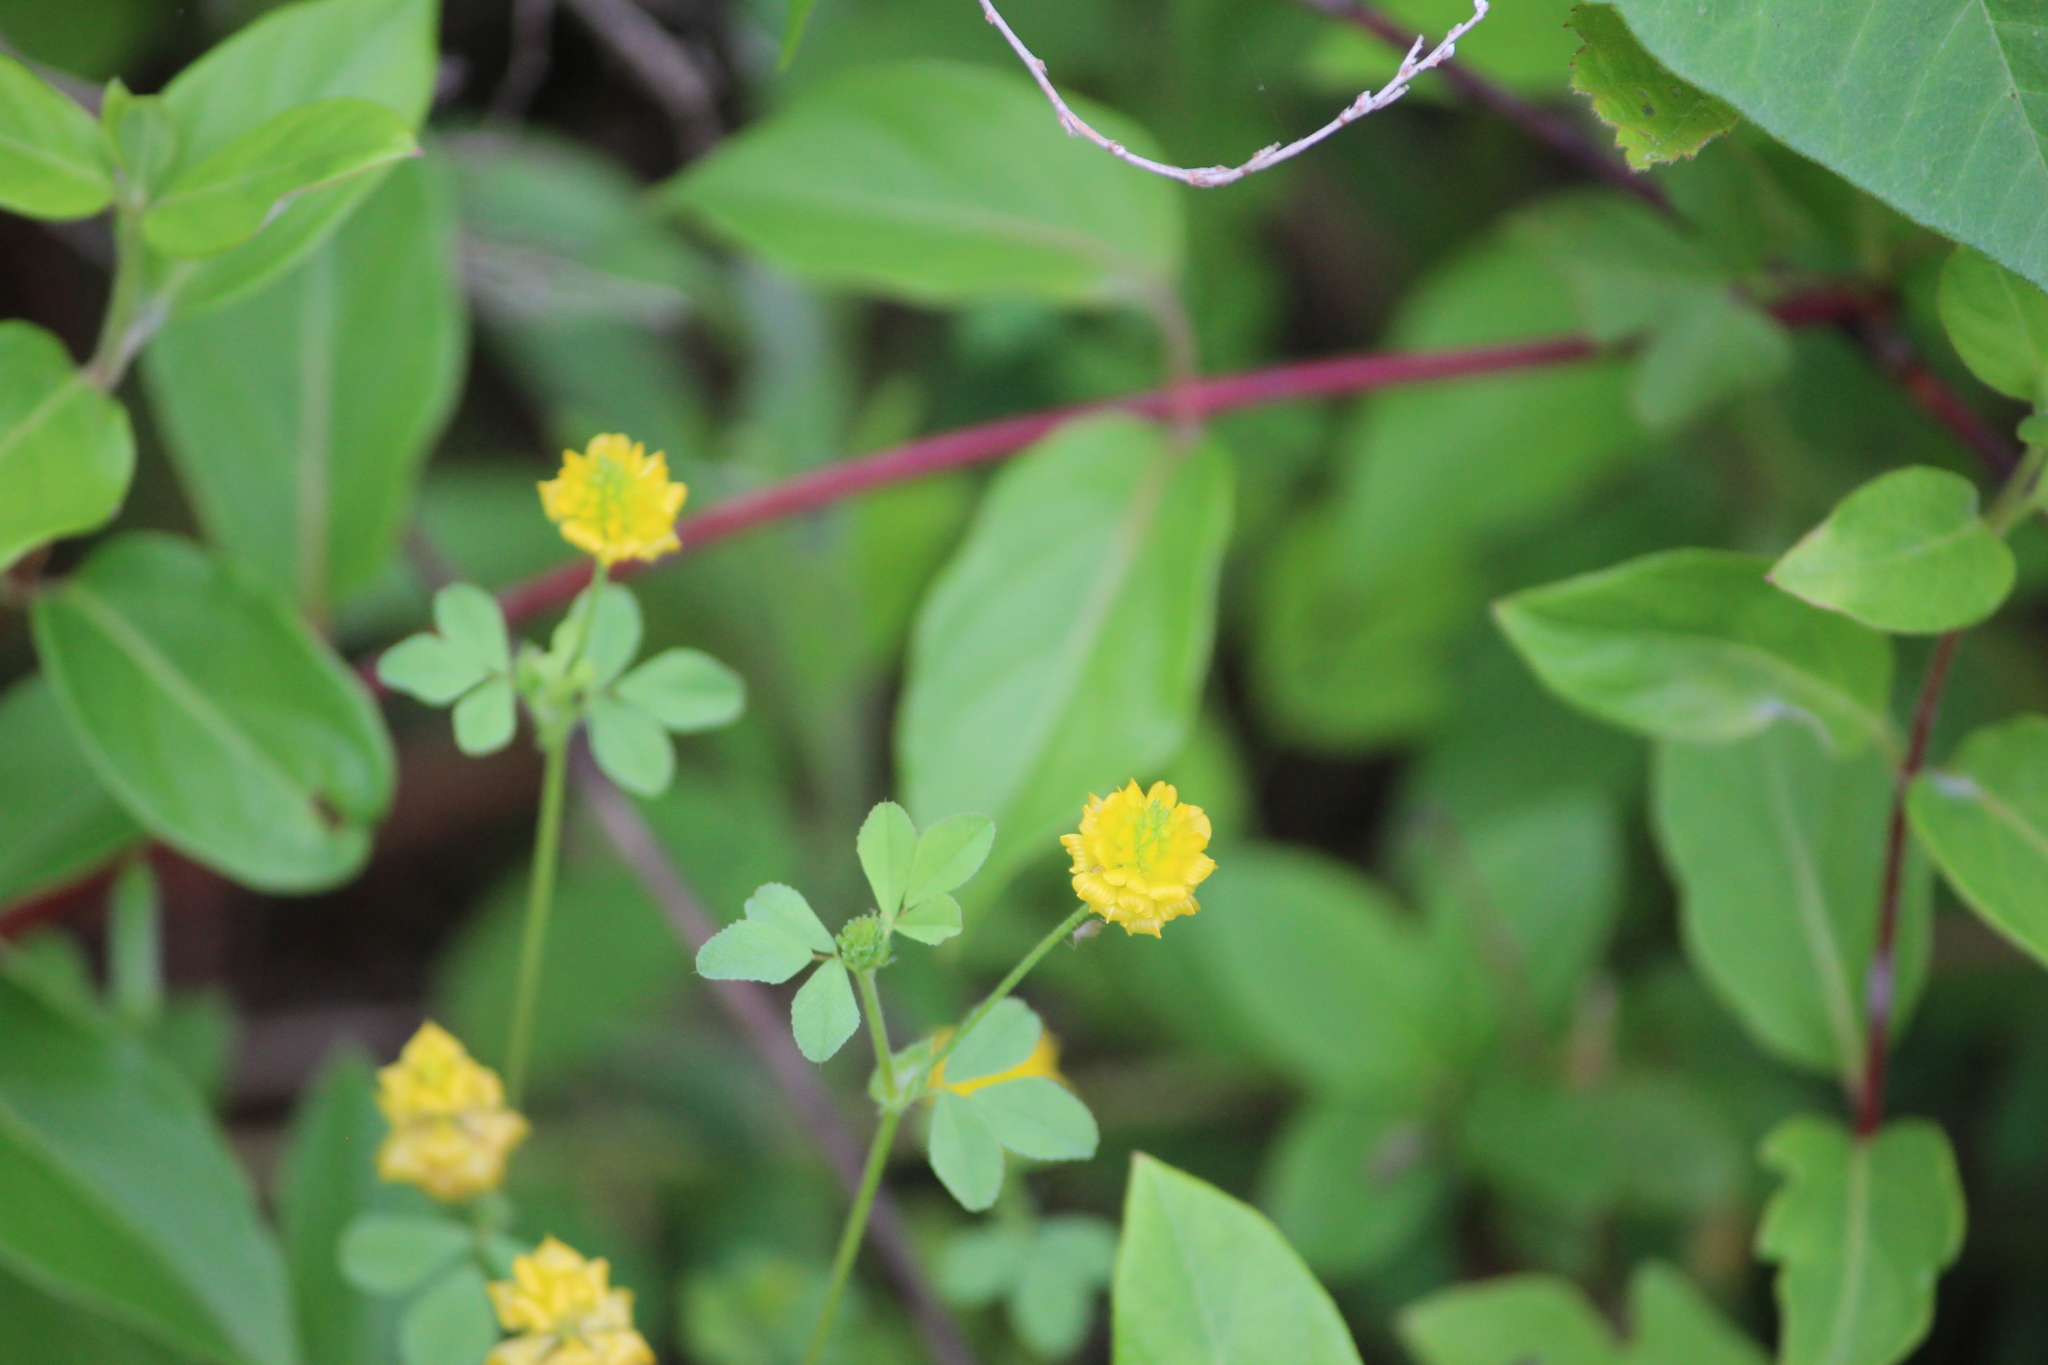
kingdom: Plantae
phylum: Tracheophyta
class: Magnoliopsida
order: Fabales
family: Fabaceae
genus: Trifolium
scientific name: Trifolium campestre
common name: Field clover
